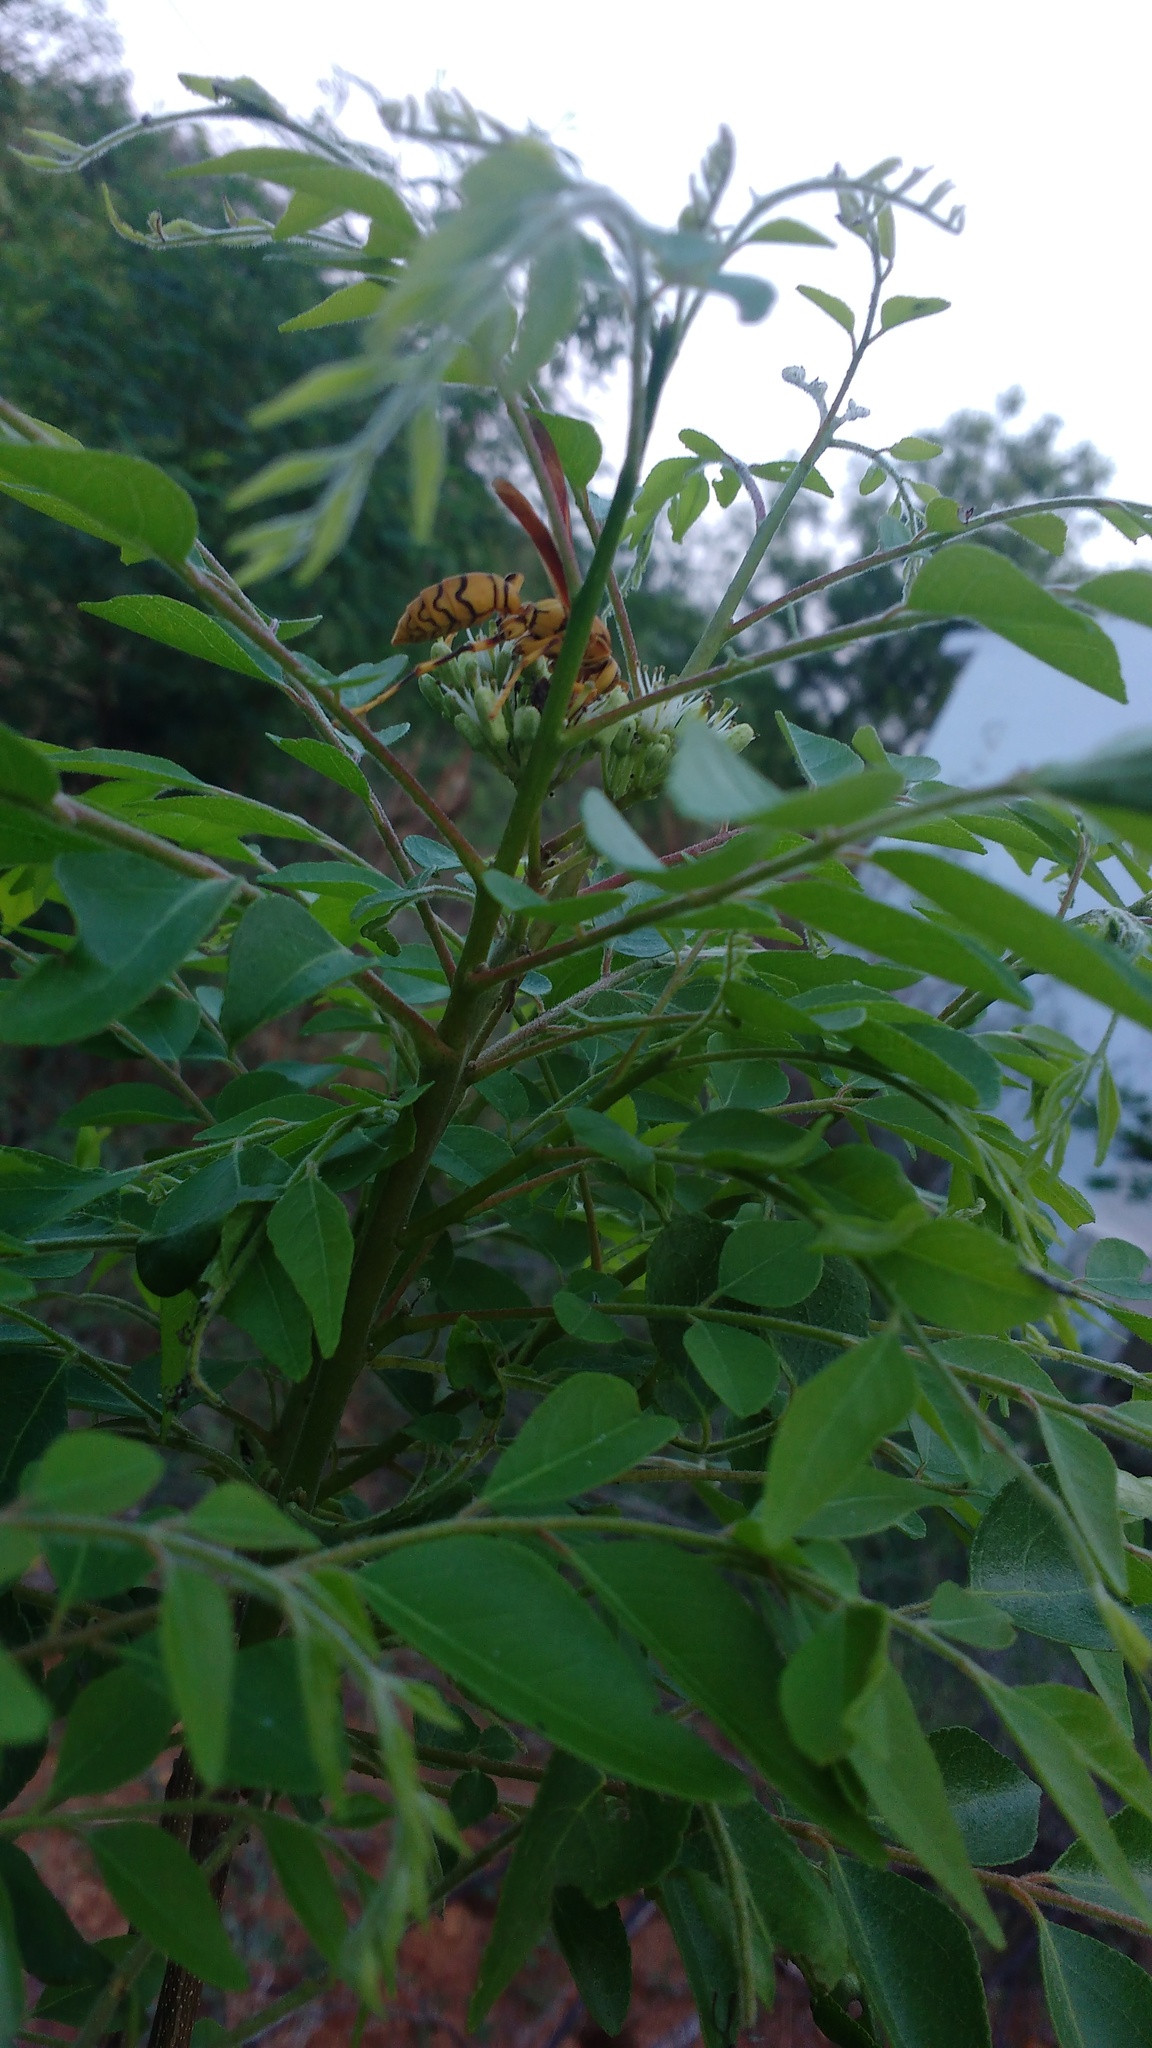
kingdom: Animalia
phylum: Arthropoda
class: Insecta
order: Hymenoptera
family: Eumenidae
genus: Polistes
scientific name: Polistes olivaceus
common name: Paper wasp
